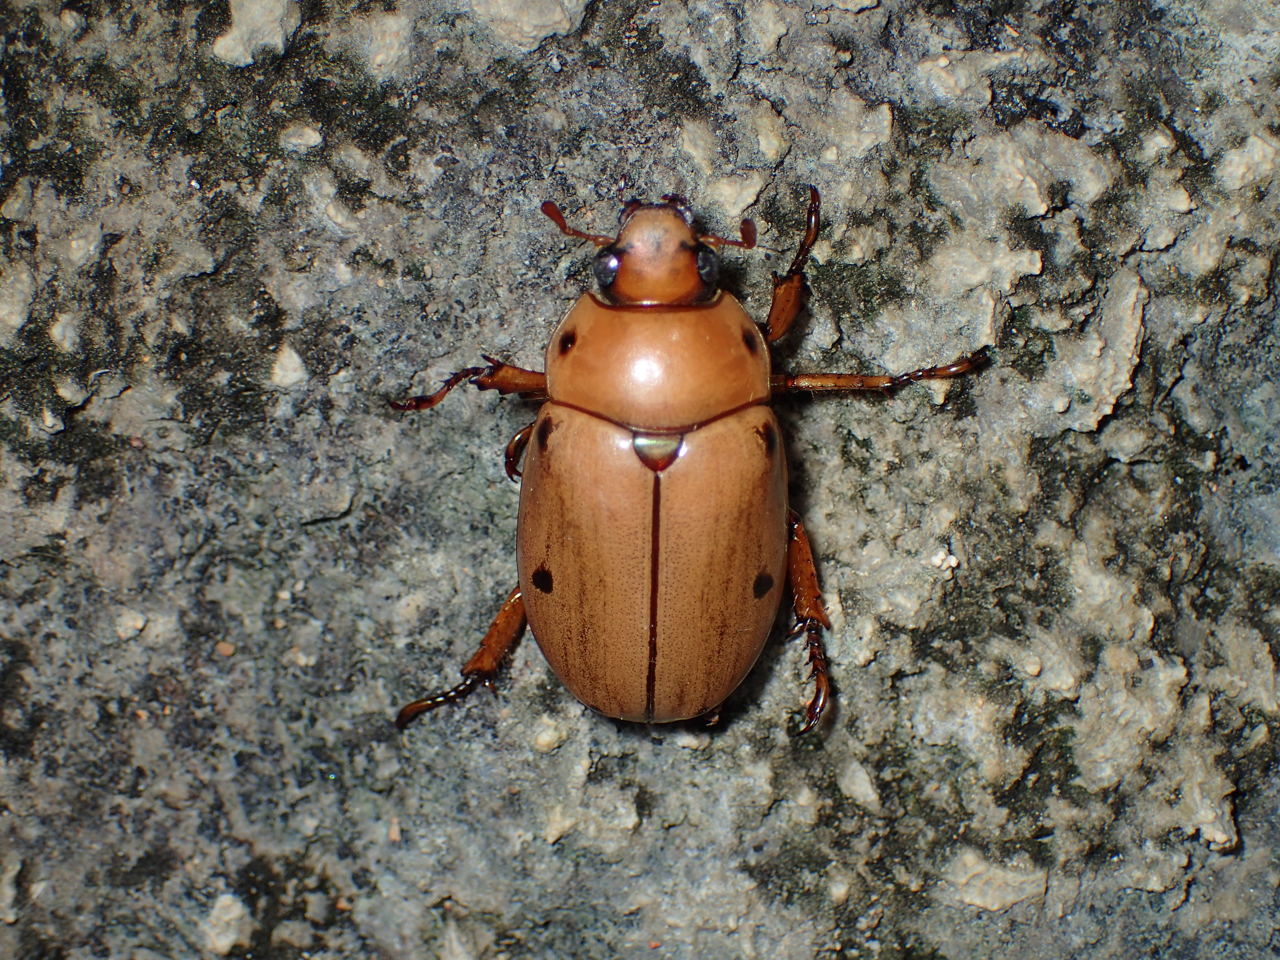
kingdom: Animalia
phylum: Arthropoda
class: Insecta
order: Coleoptera
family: Scarabaeidae
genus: Pelidnota
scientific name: Pelidnota punctata
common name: Grapevine beetle
